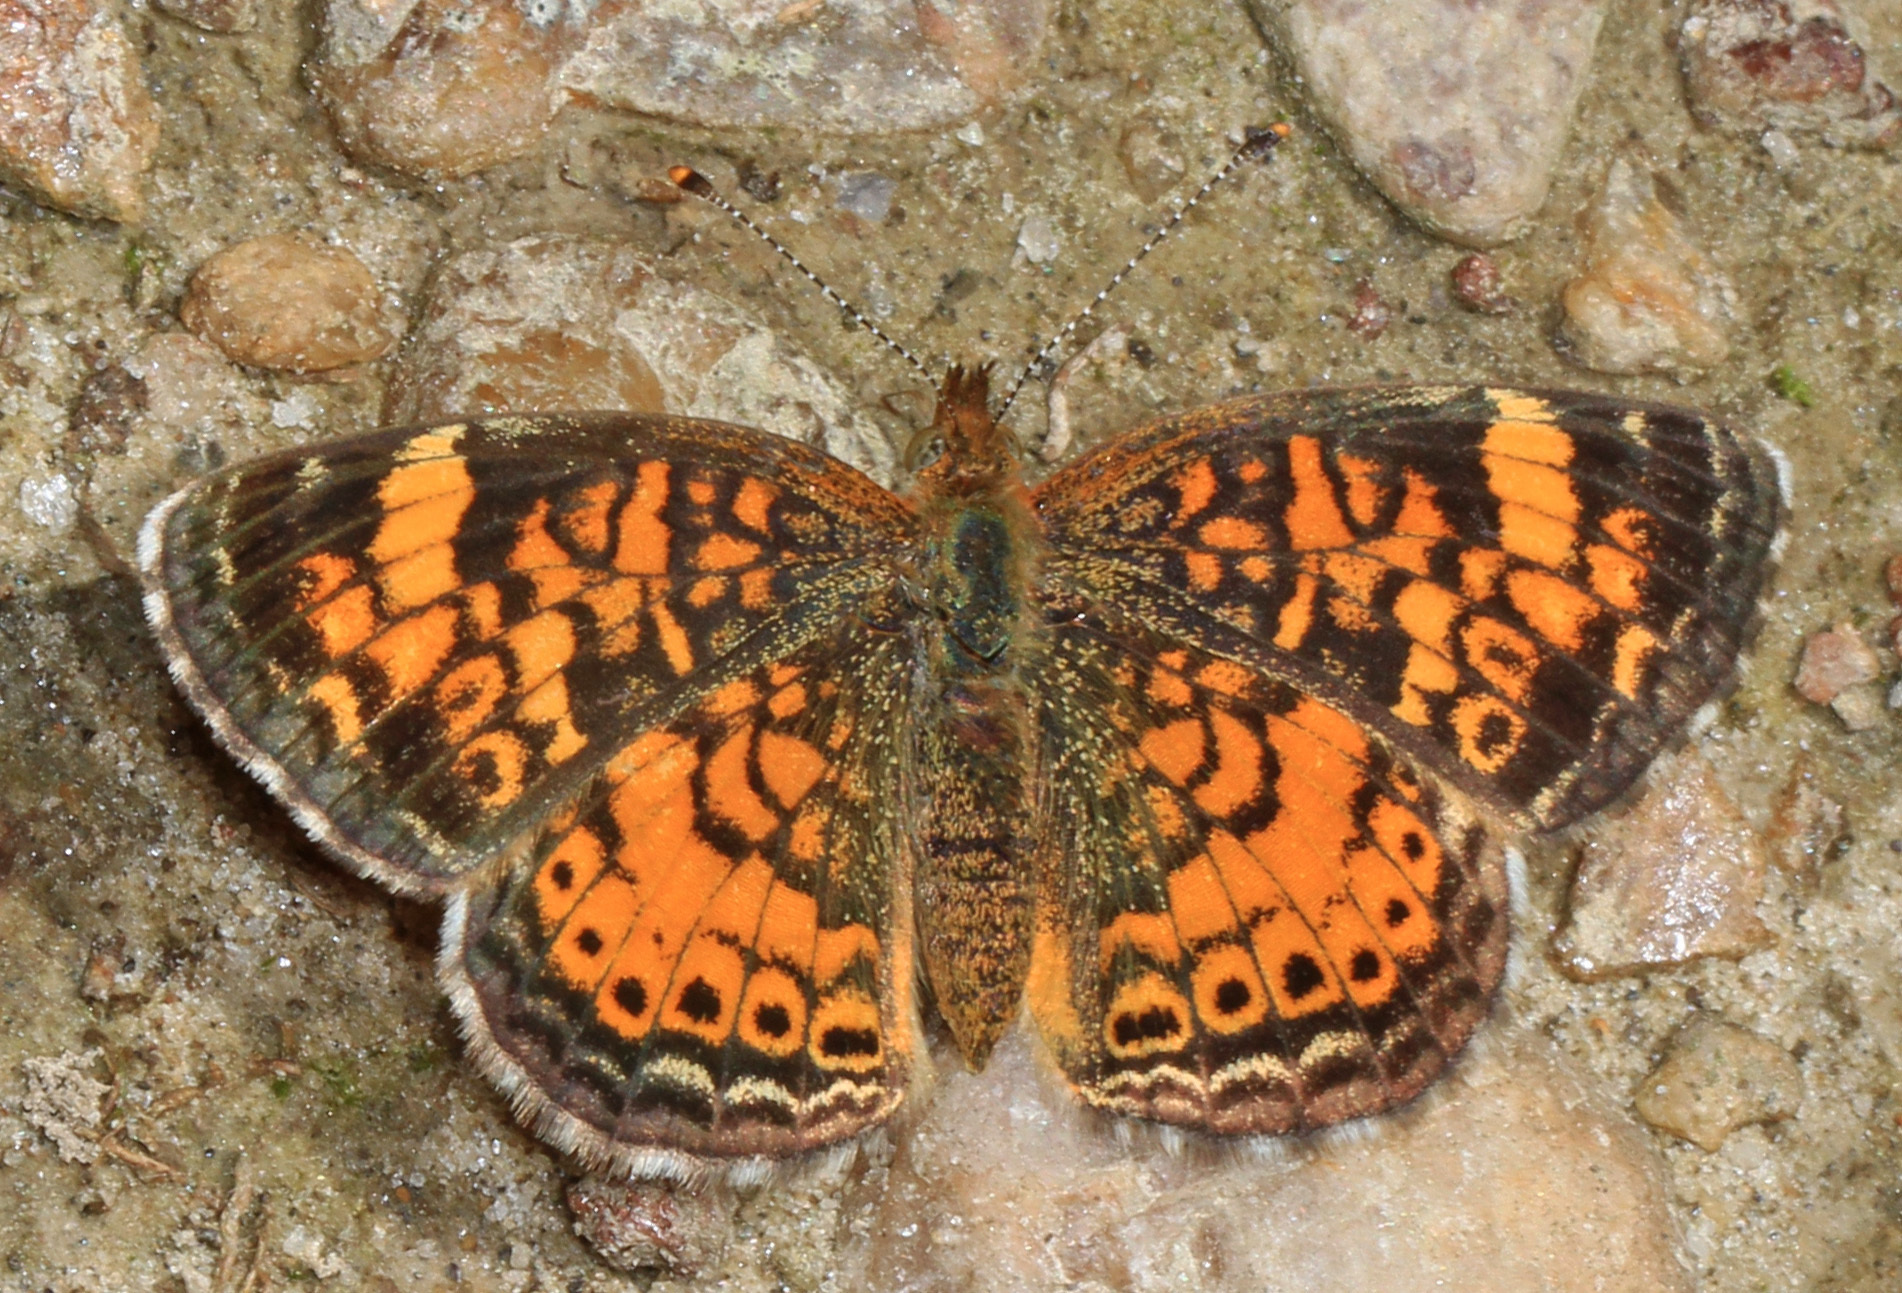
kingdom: Animalia
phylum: Arthropoda
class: Insecta
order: Lepidoptera
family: Nymphalidae
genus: Phyciodes
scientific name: Phyciodes tharos
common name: Pearl crescent
